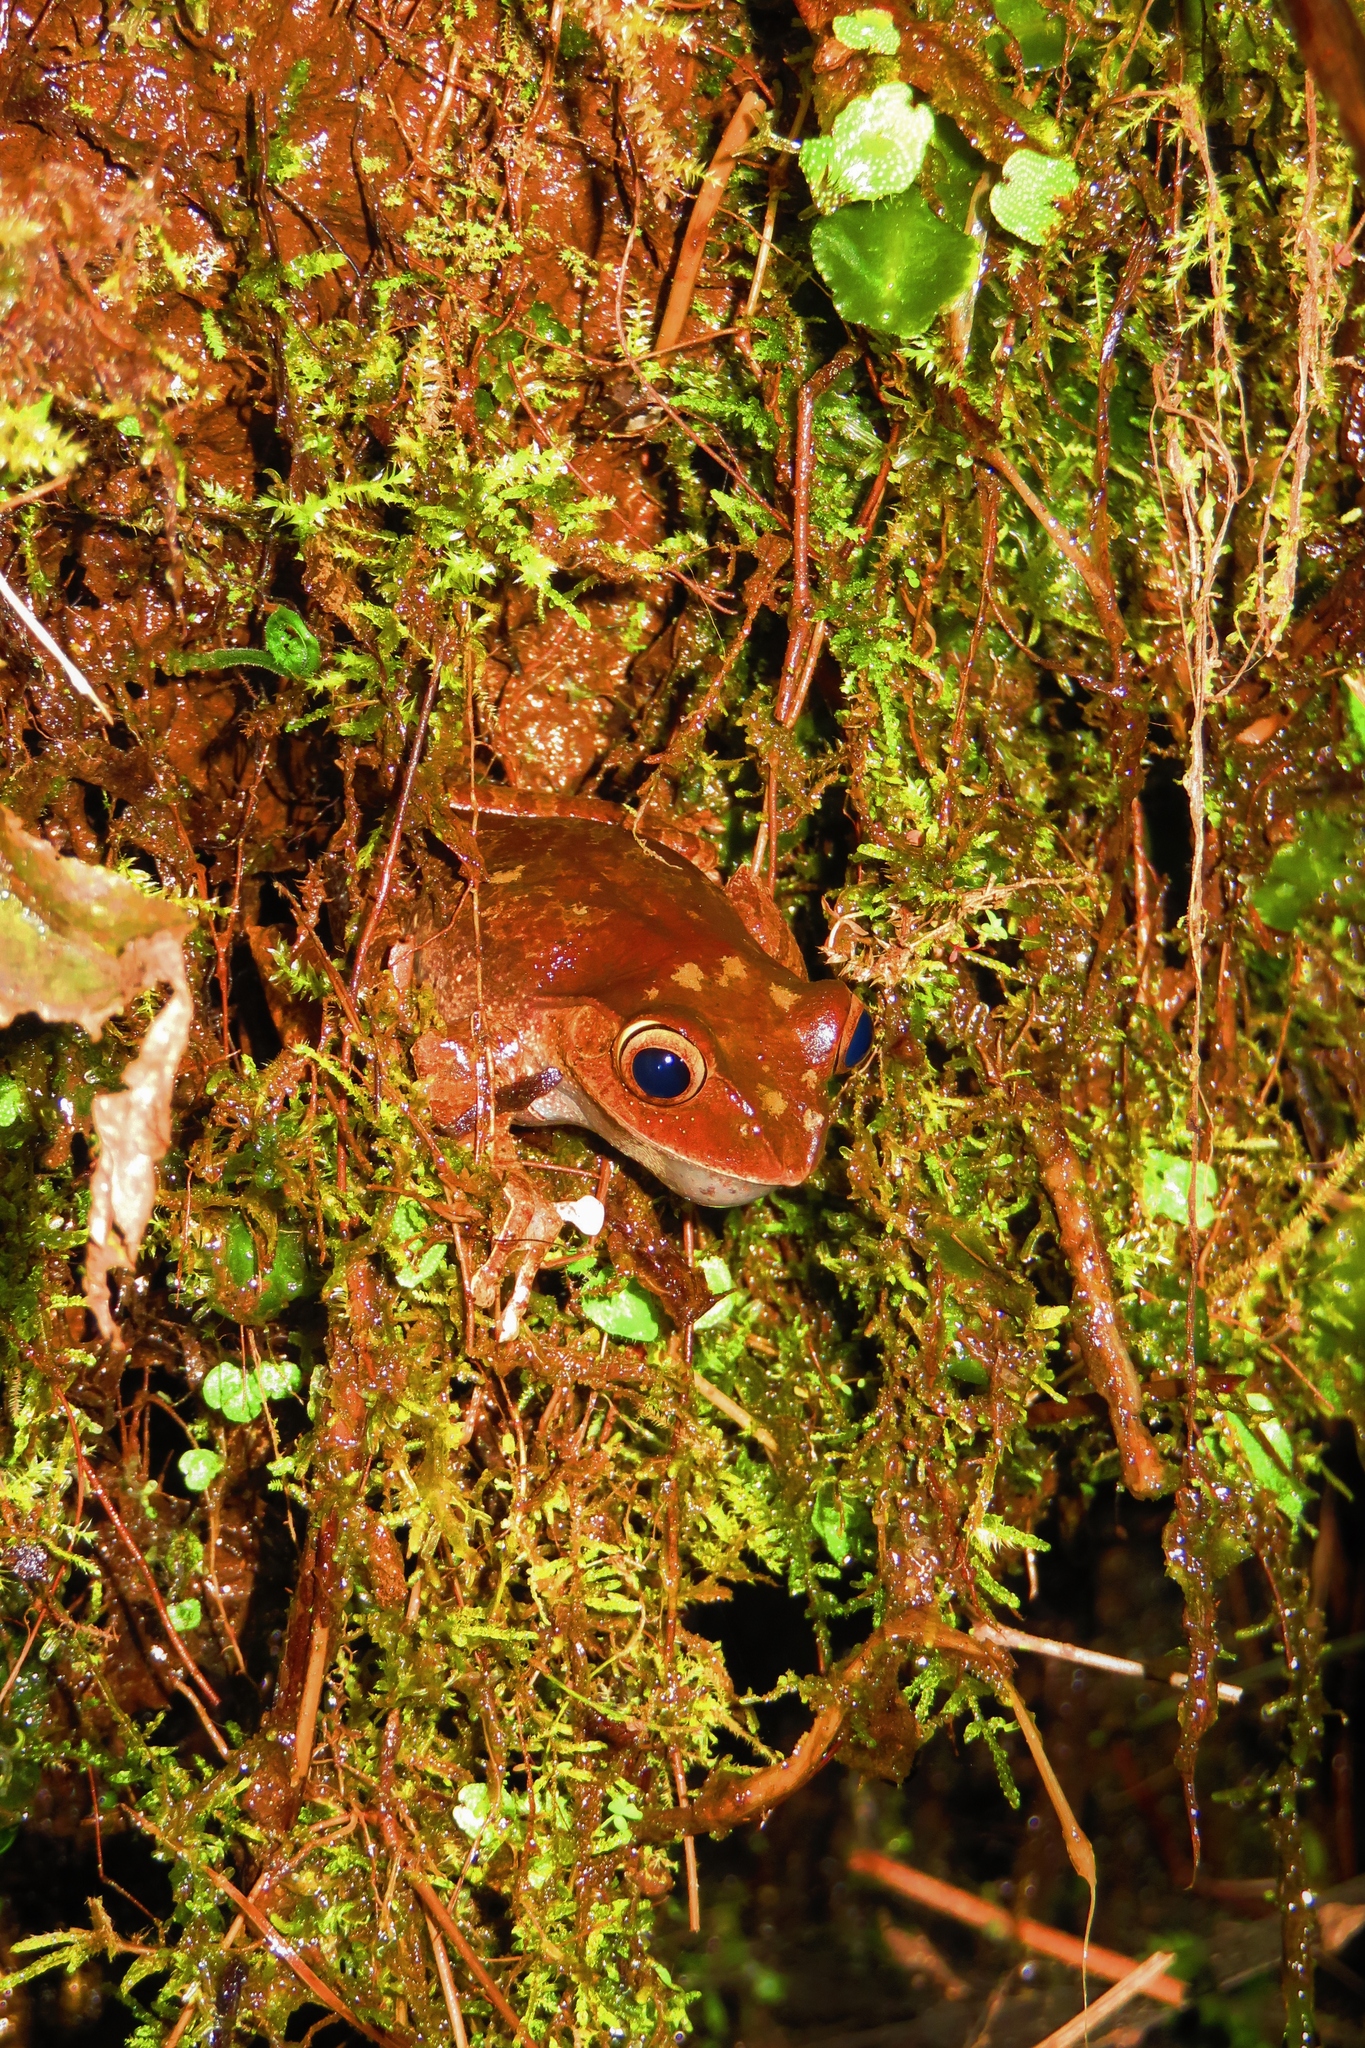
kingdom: Animalia
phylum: Chordata
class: Amphibia
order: Anura
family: Mantellidae
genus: Boophis
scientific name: Boophis madagascariensis
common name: Madagascar bright-eyed frog
